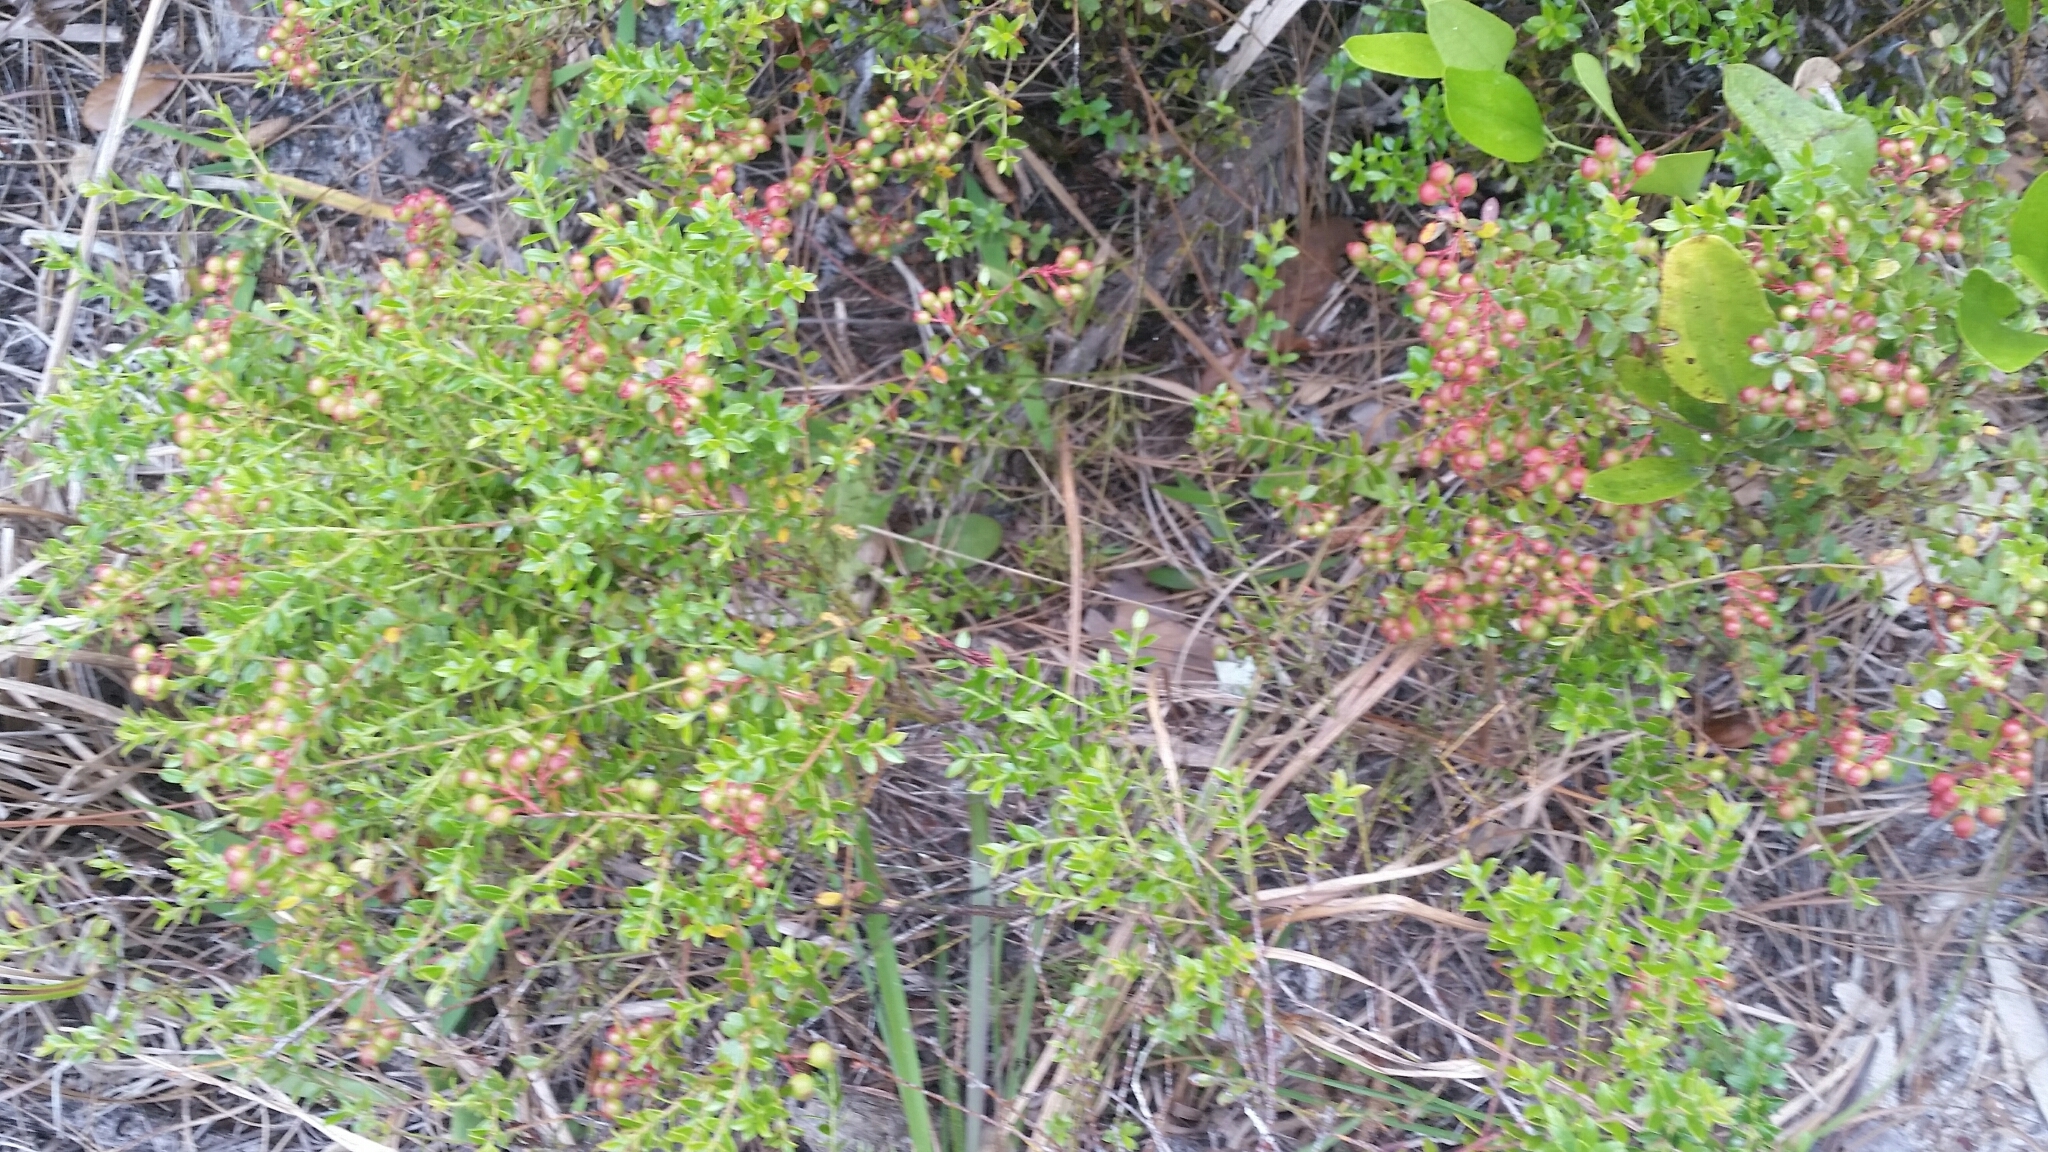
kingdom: Plantae
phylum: Tracheophyta
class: Magnoliopsida
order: Ericales
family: Ericaceae
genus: Vaccinium
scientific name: Vaccinium myrsinites
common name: Evergreen blueberry
